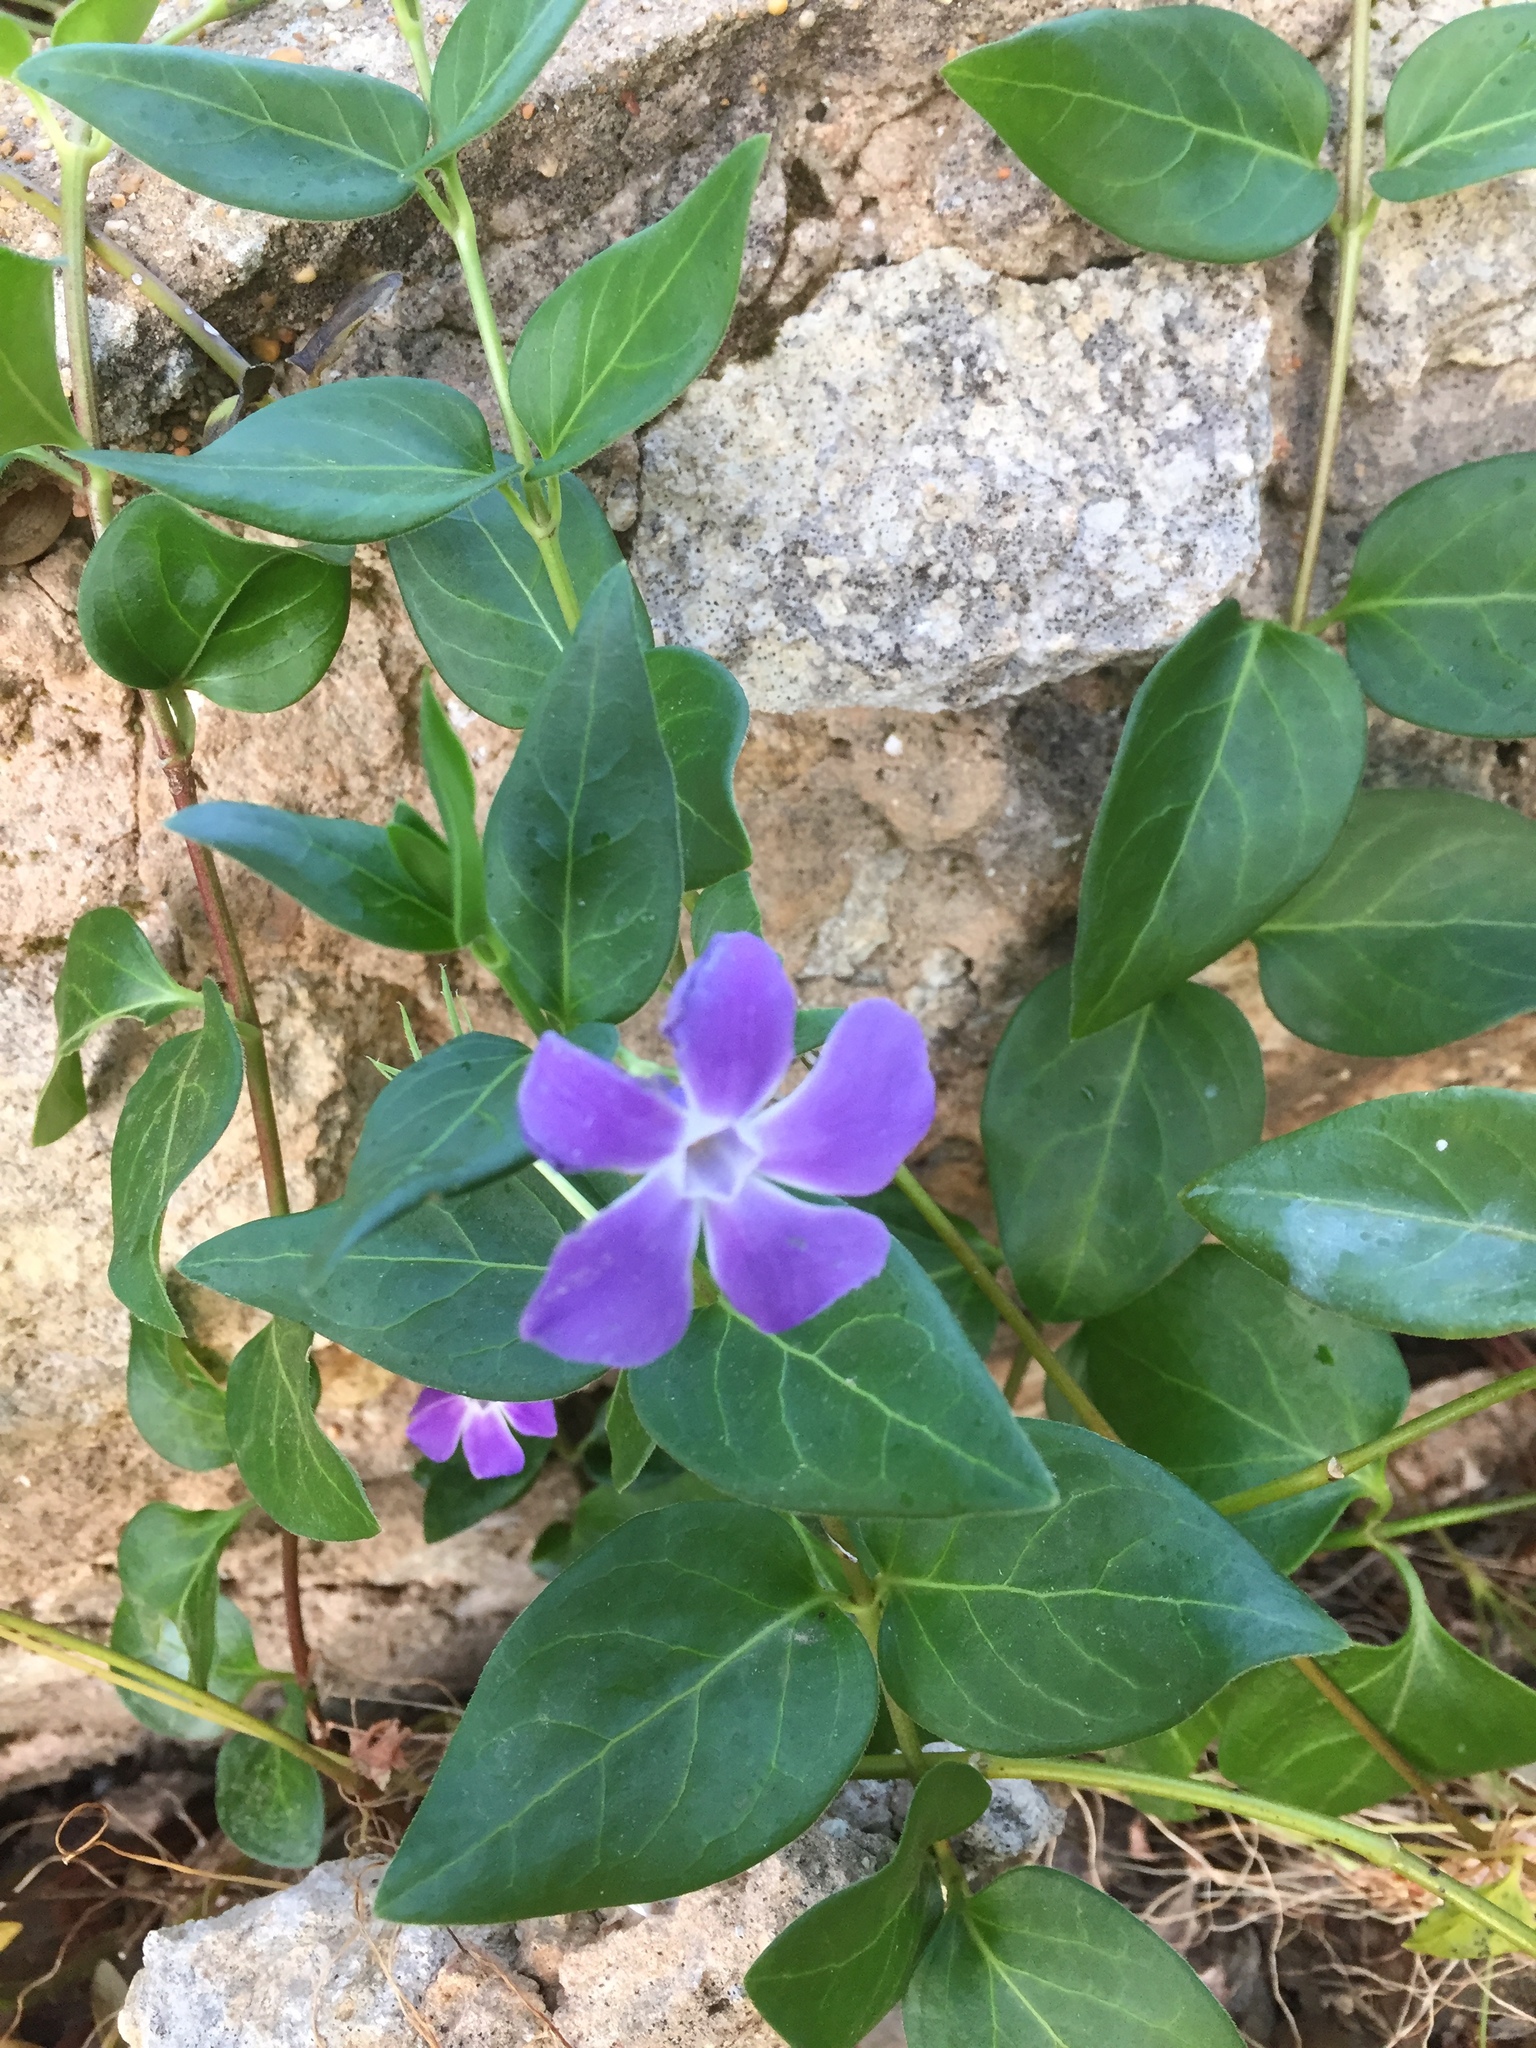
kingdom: Plantae
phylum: Tracheophyta
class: Magnoliopsida
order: Gentianales
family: Apocynaceae
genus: Vinca
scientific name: Vinca major
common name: Greater periwinkle
